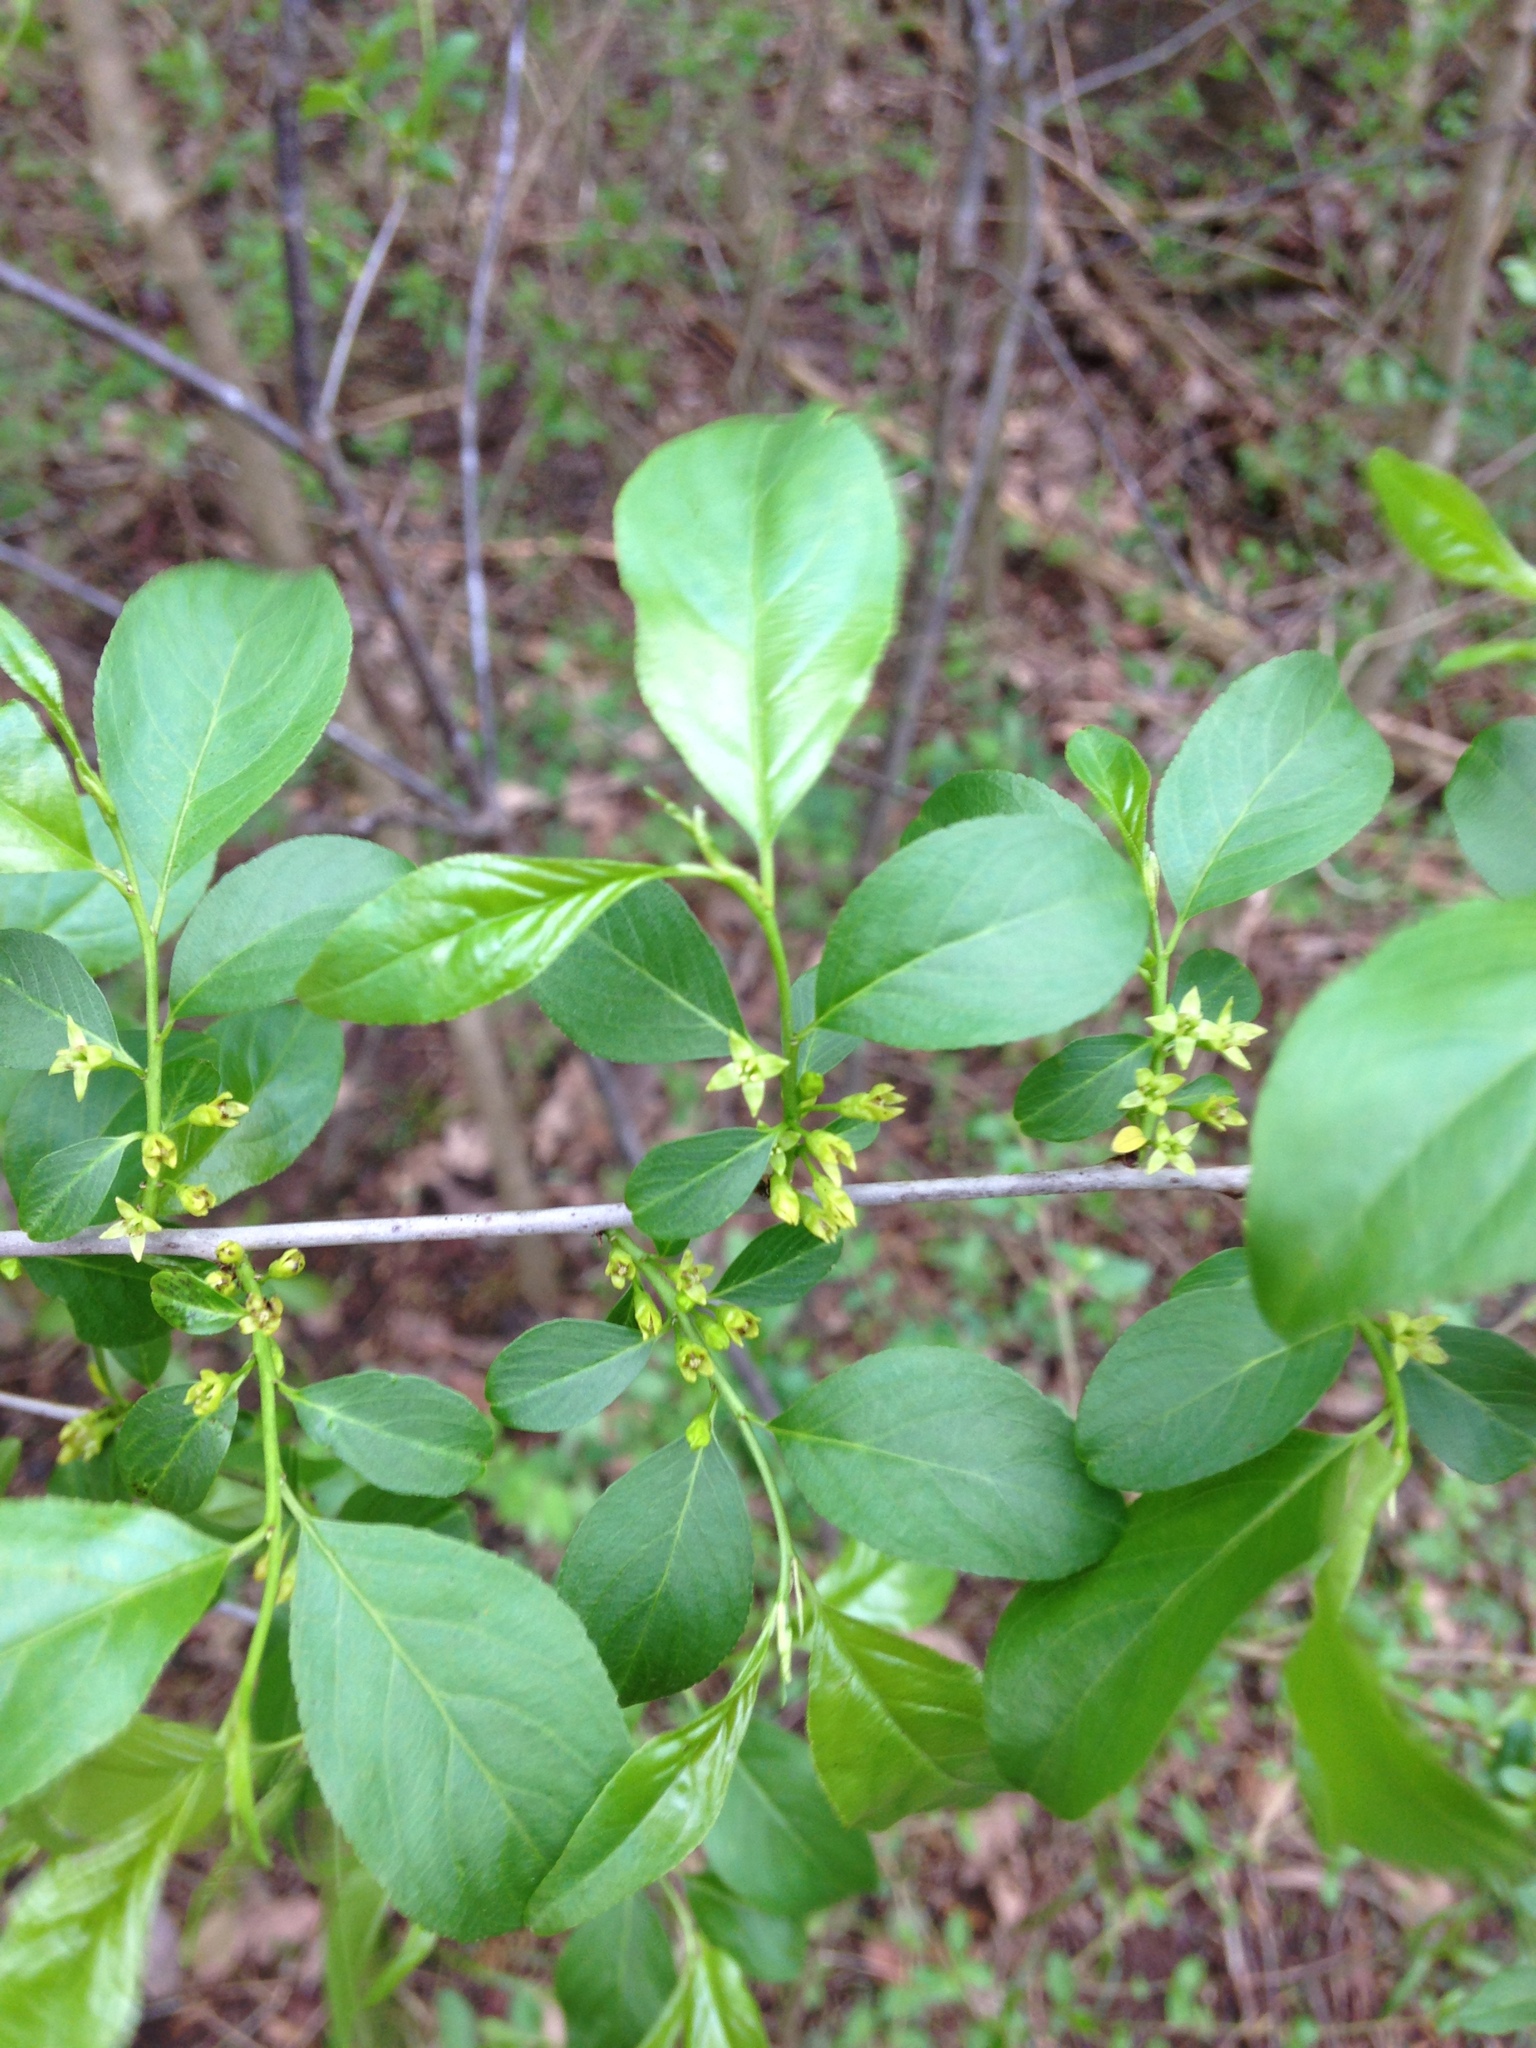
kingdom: Plantae
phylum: Tracheophyta
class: Magnoliopsida
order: Rosales
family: Rhamnaceae
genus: Endotropis
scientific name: Endotropis lanceolata
